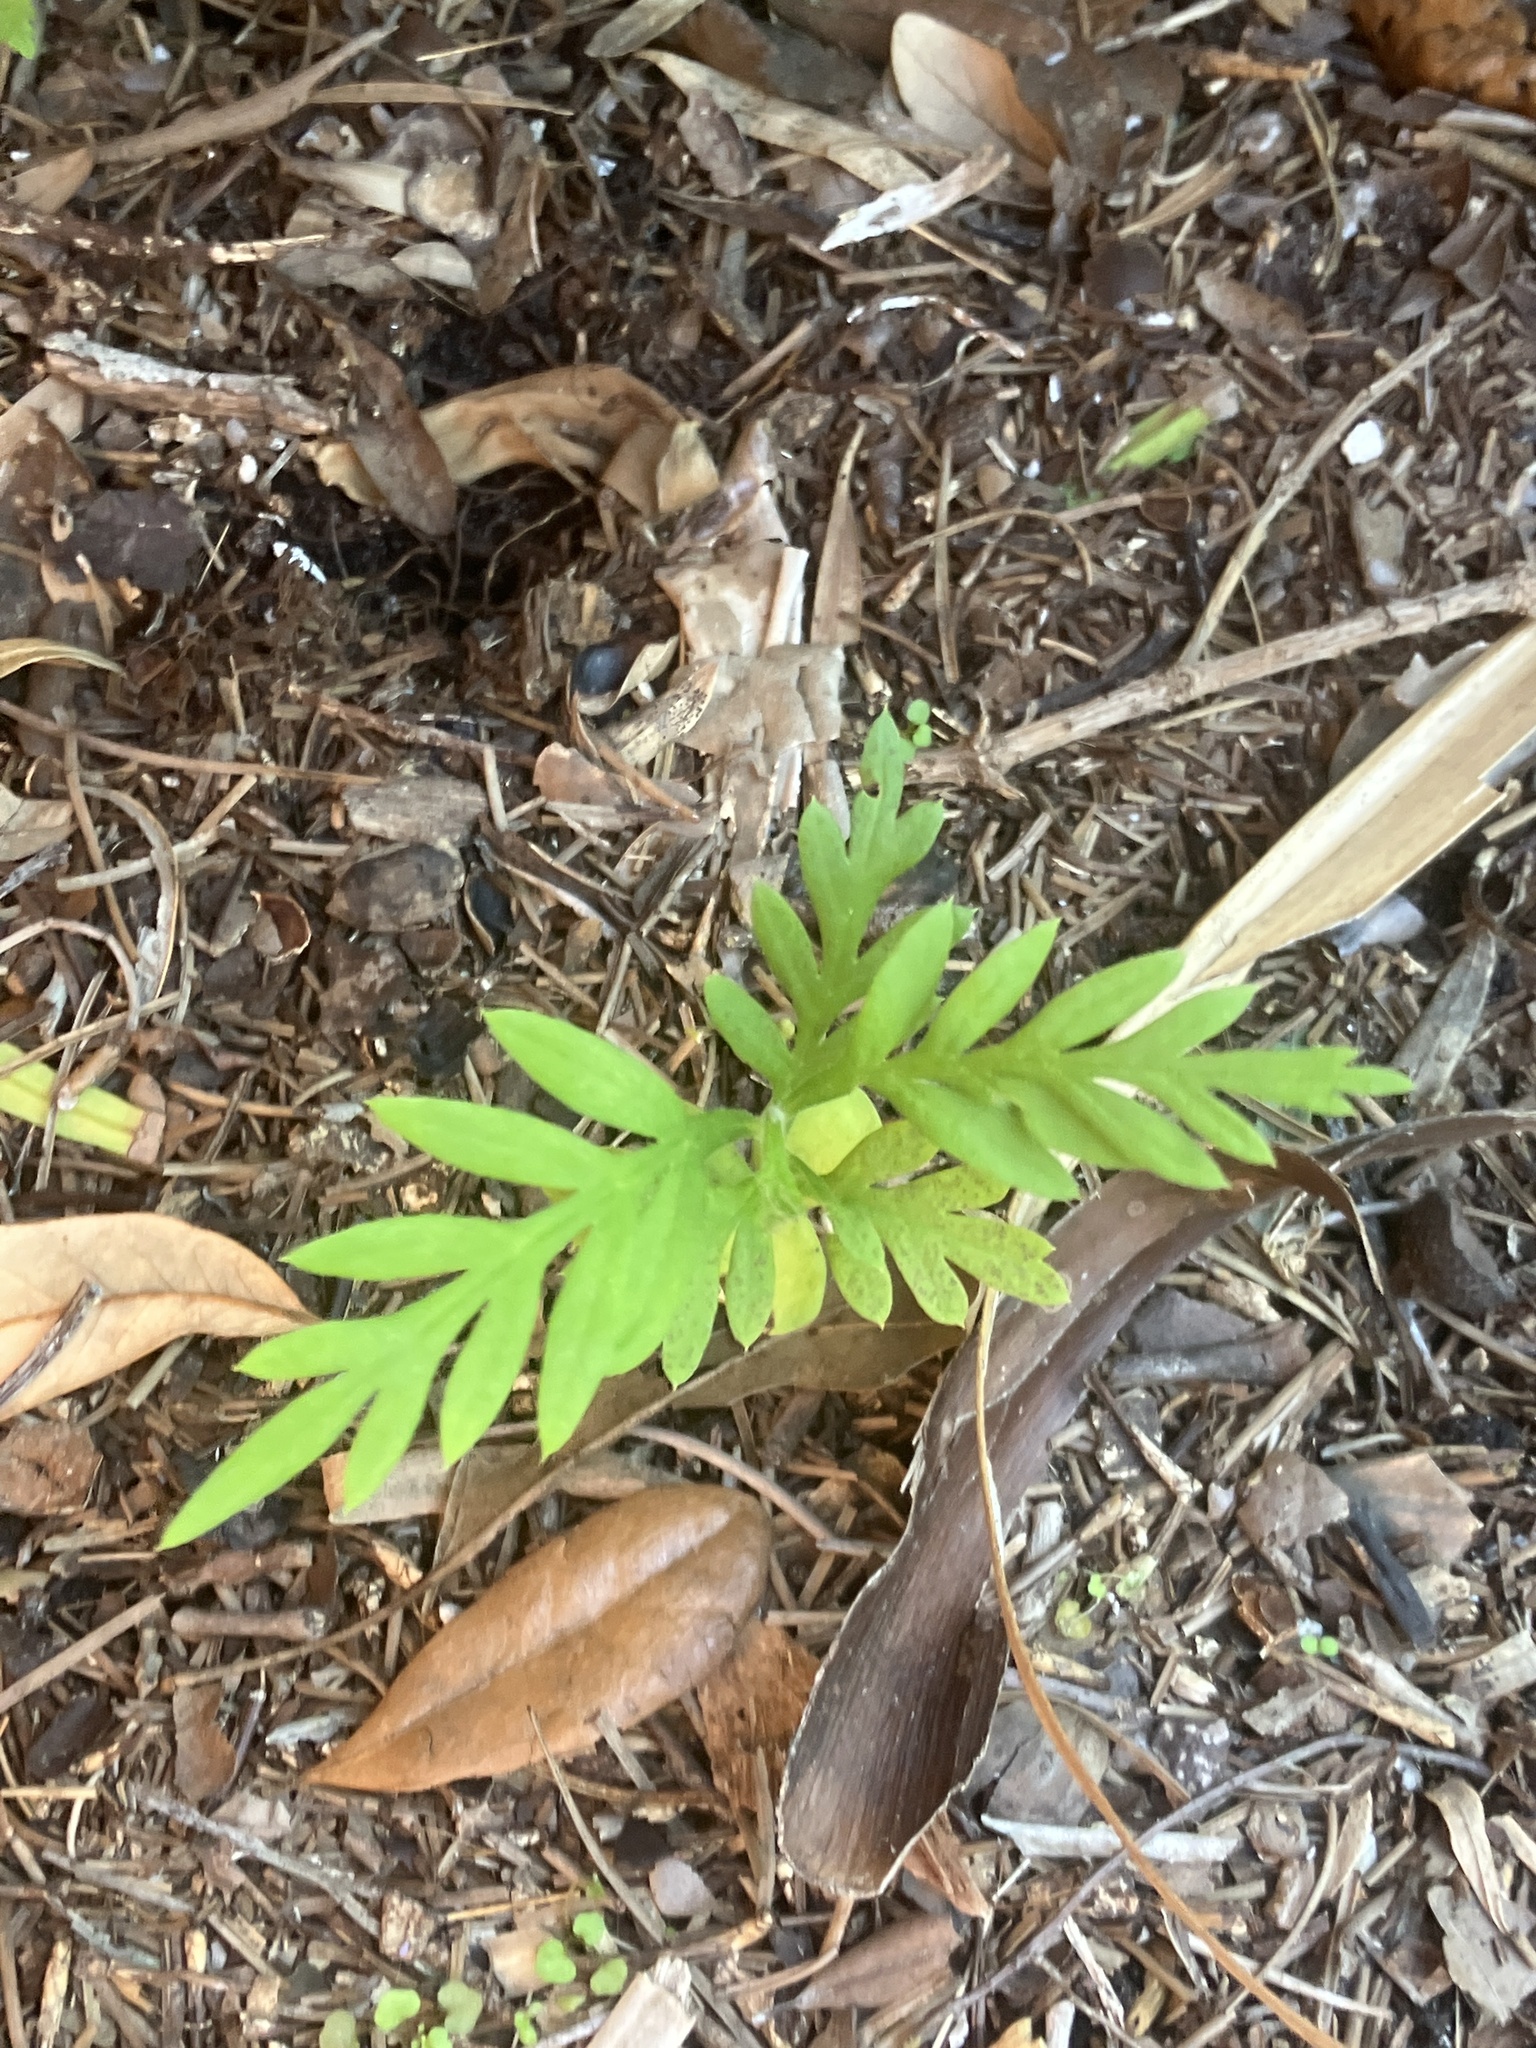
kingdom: Plantae
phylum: Tracheophyta
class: Magnoliopsida
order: Asterales
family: Asteraceae
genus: Ambrosia
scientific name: Ambrosia artemisiifolia
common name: Annual ragweed
